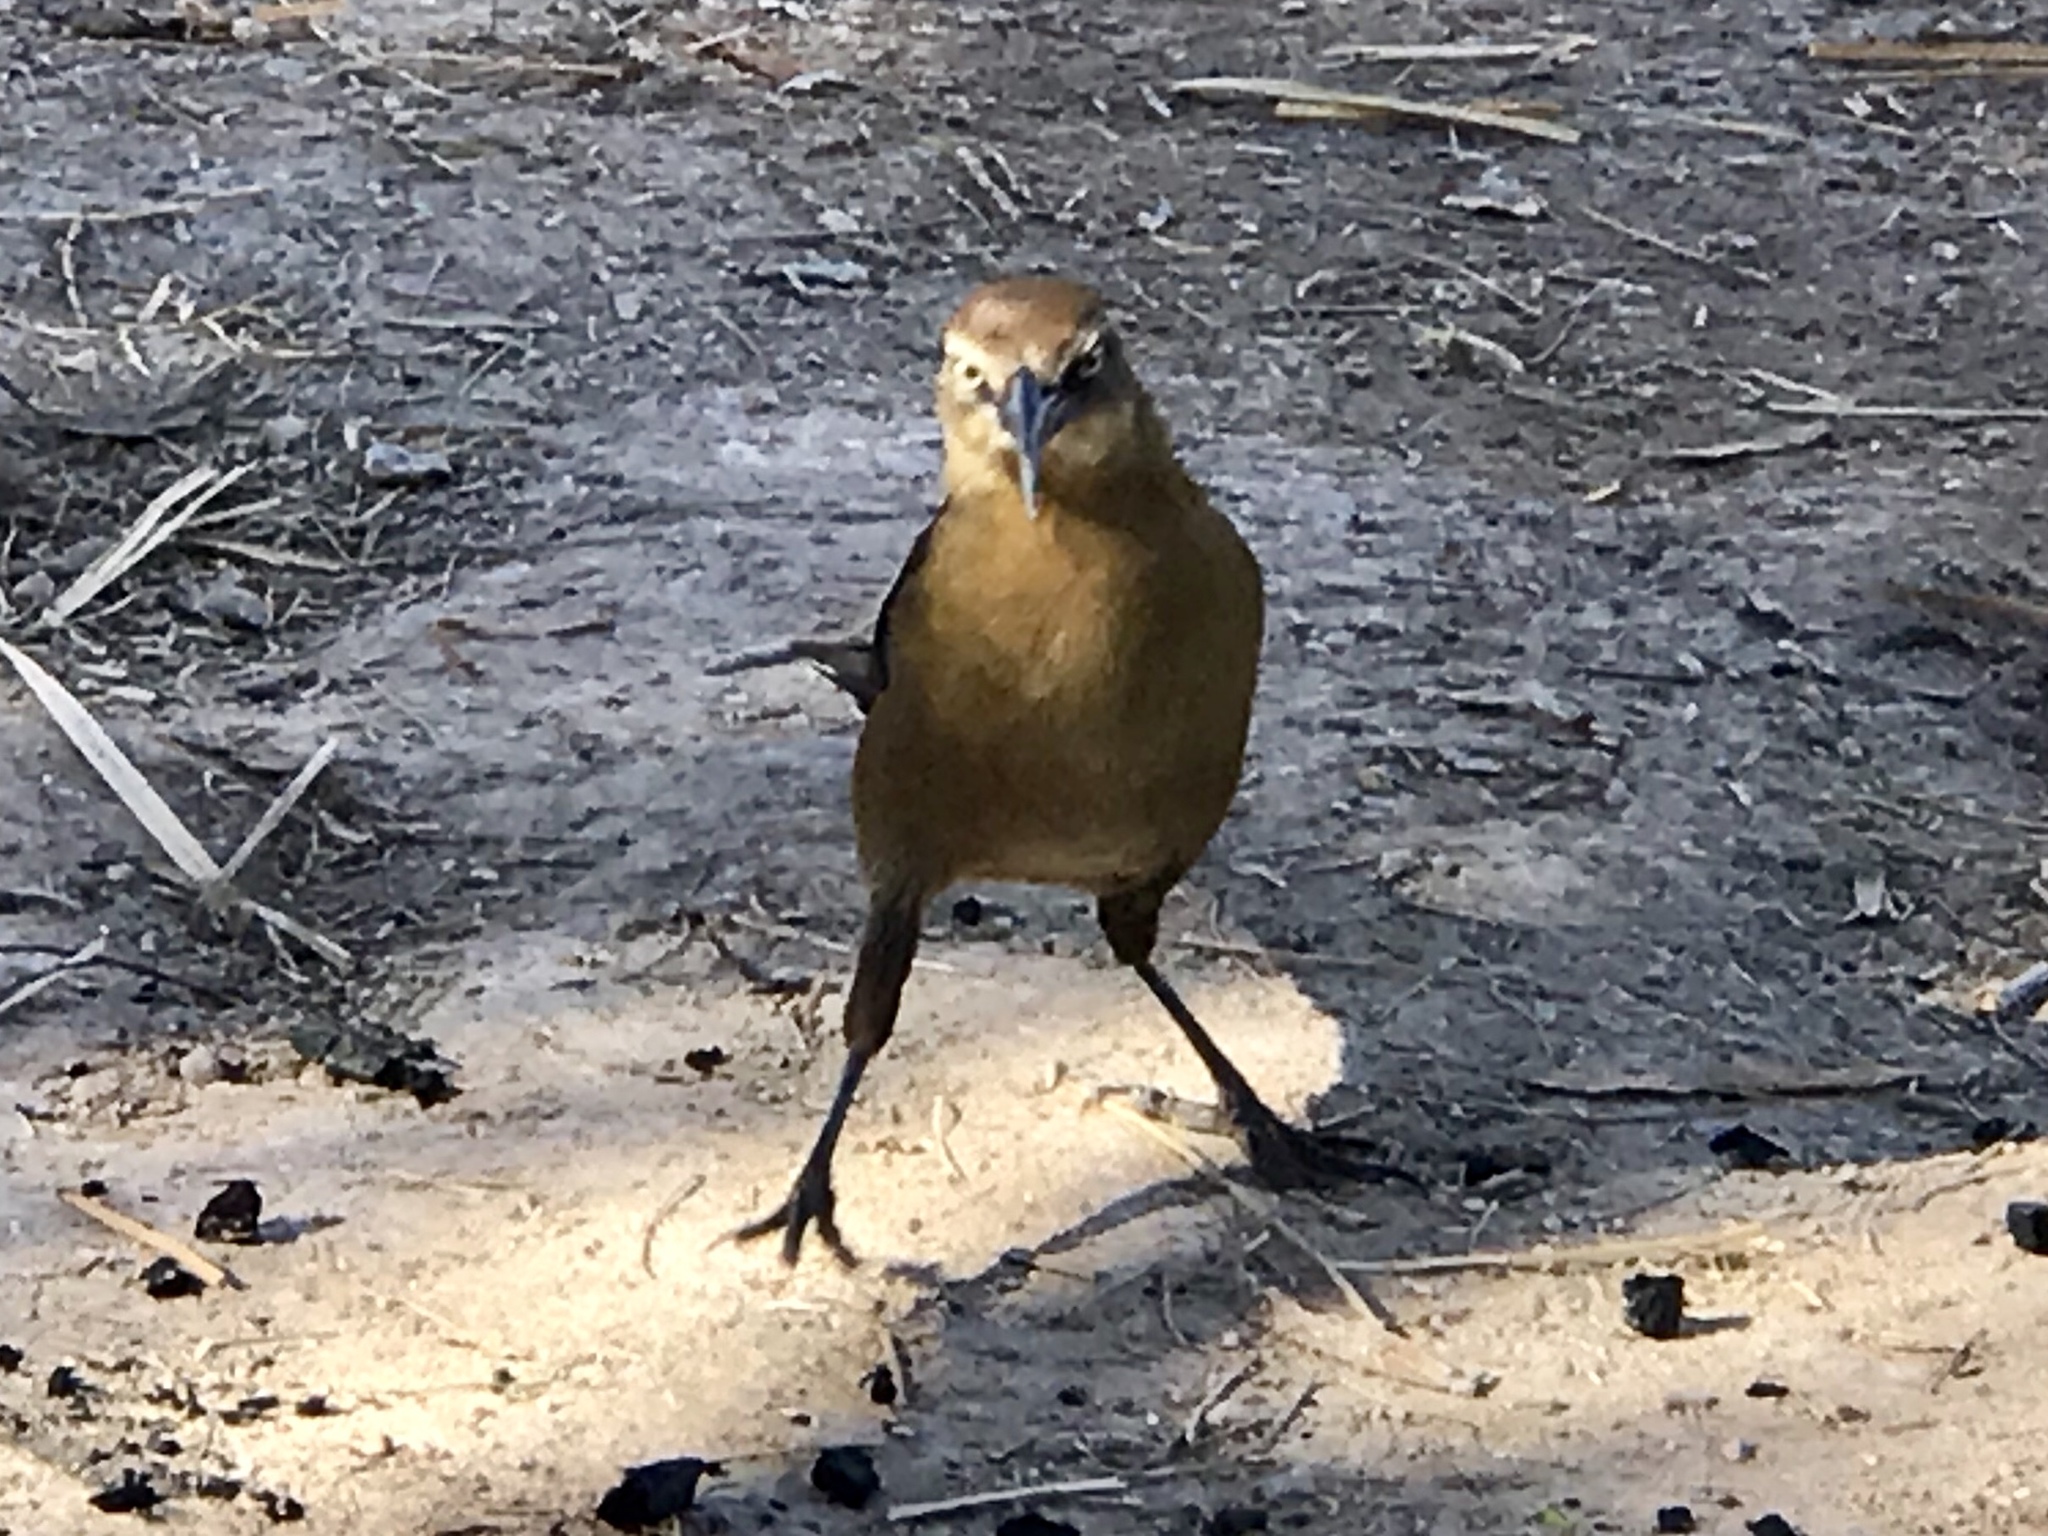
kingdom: Animalia
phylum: Chordata
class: Aves
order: Passeriformes
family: Icteridae
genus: Quiscalus
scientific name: Quiscalus mexicanus
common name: Great-tailed grackle
